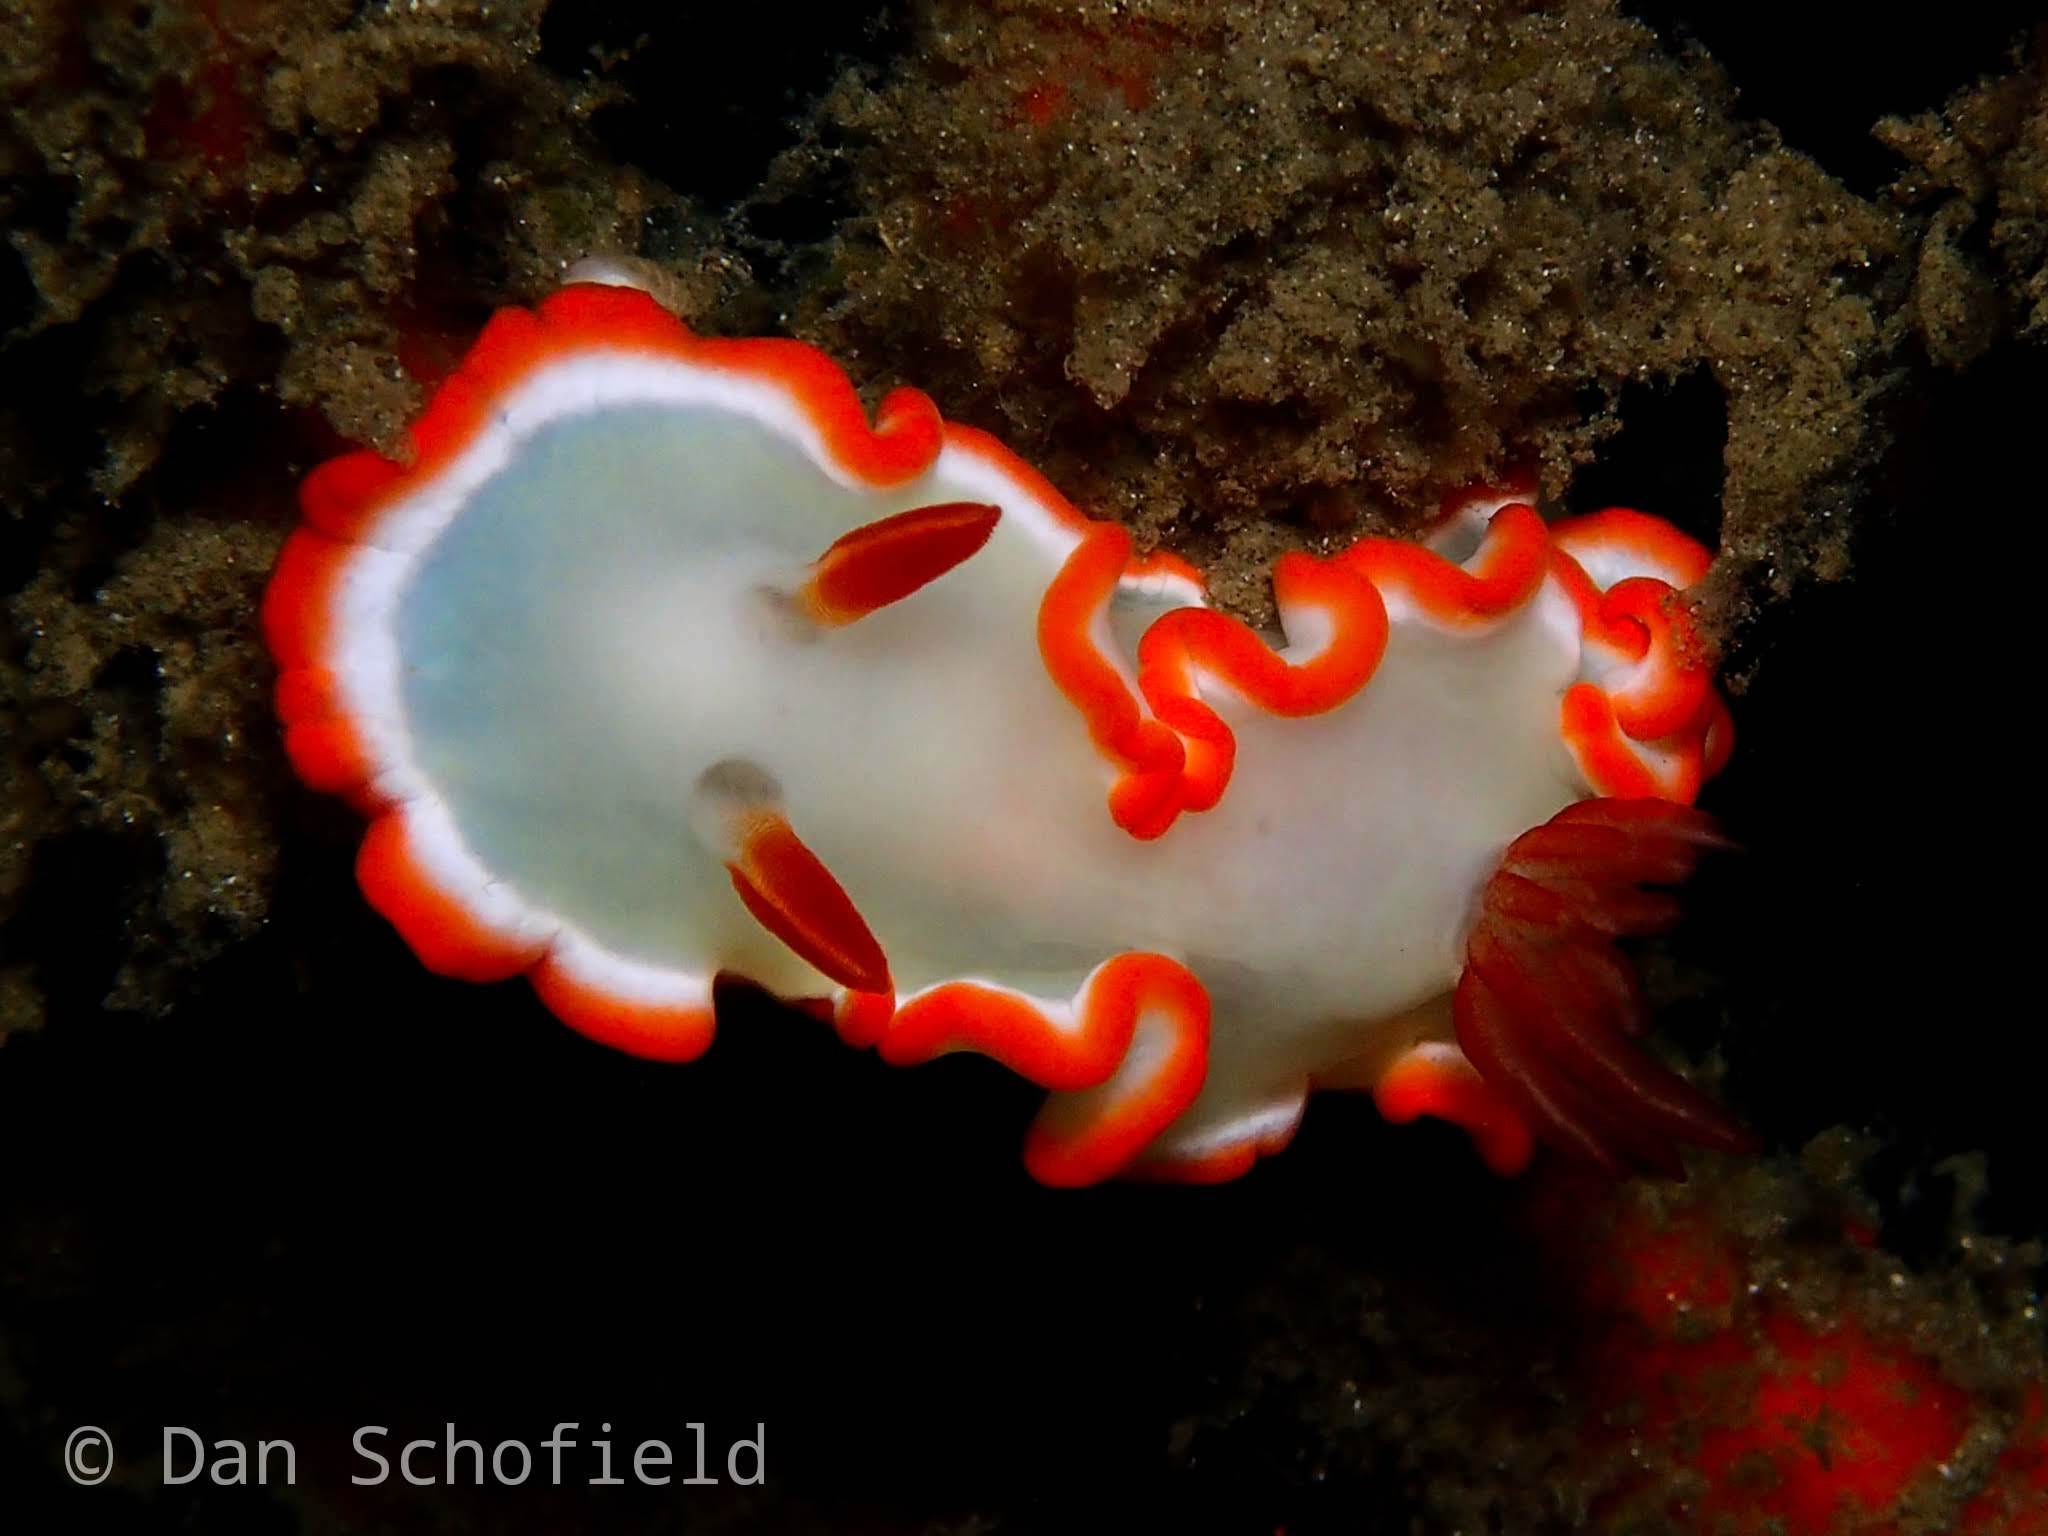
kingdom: Animalia
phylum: Mollusca
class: Gastropoda
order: Nudibranchia
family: Chromodorididae
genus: Ardeadoris
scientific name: Ardeadoris averni
